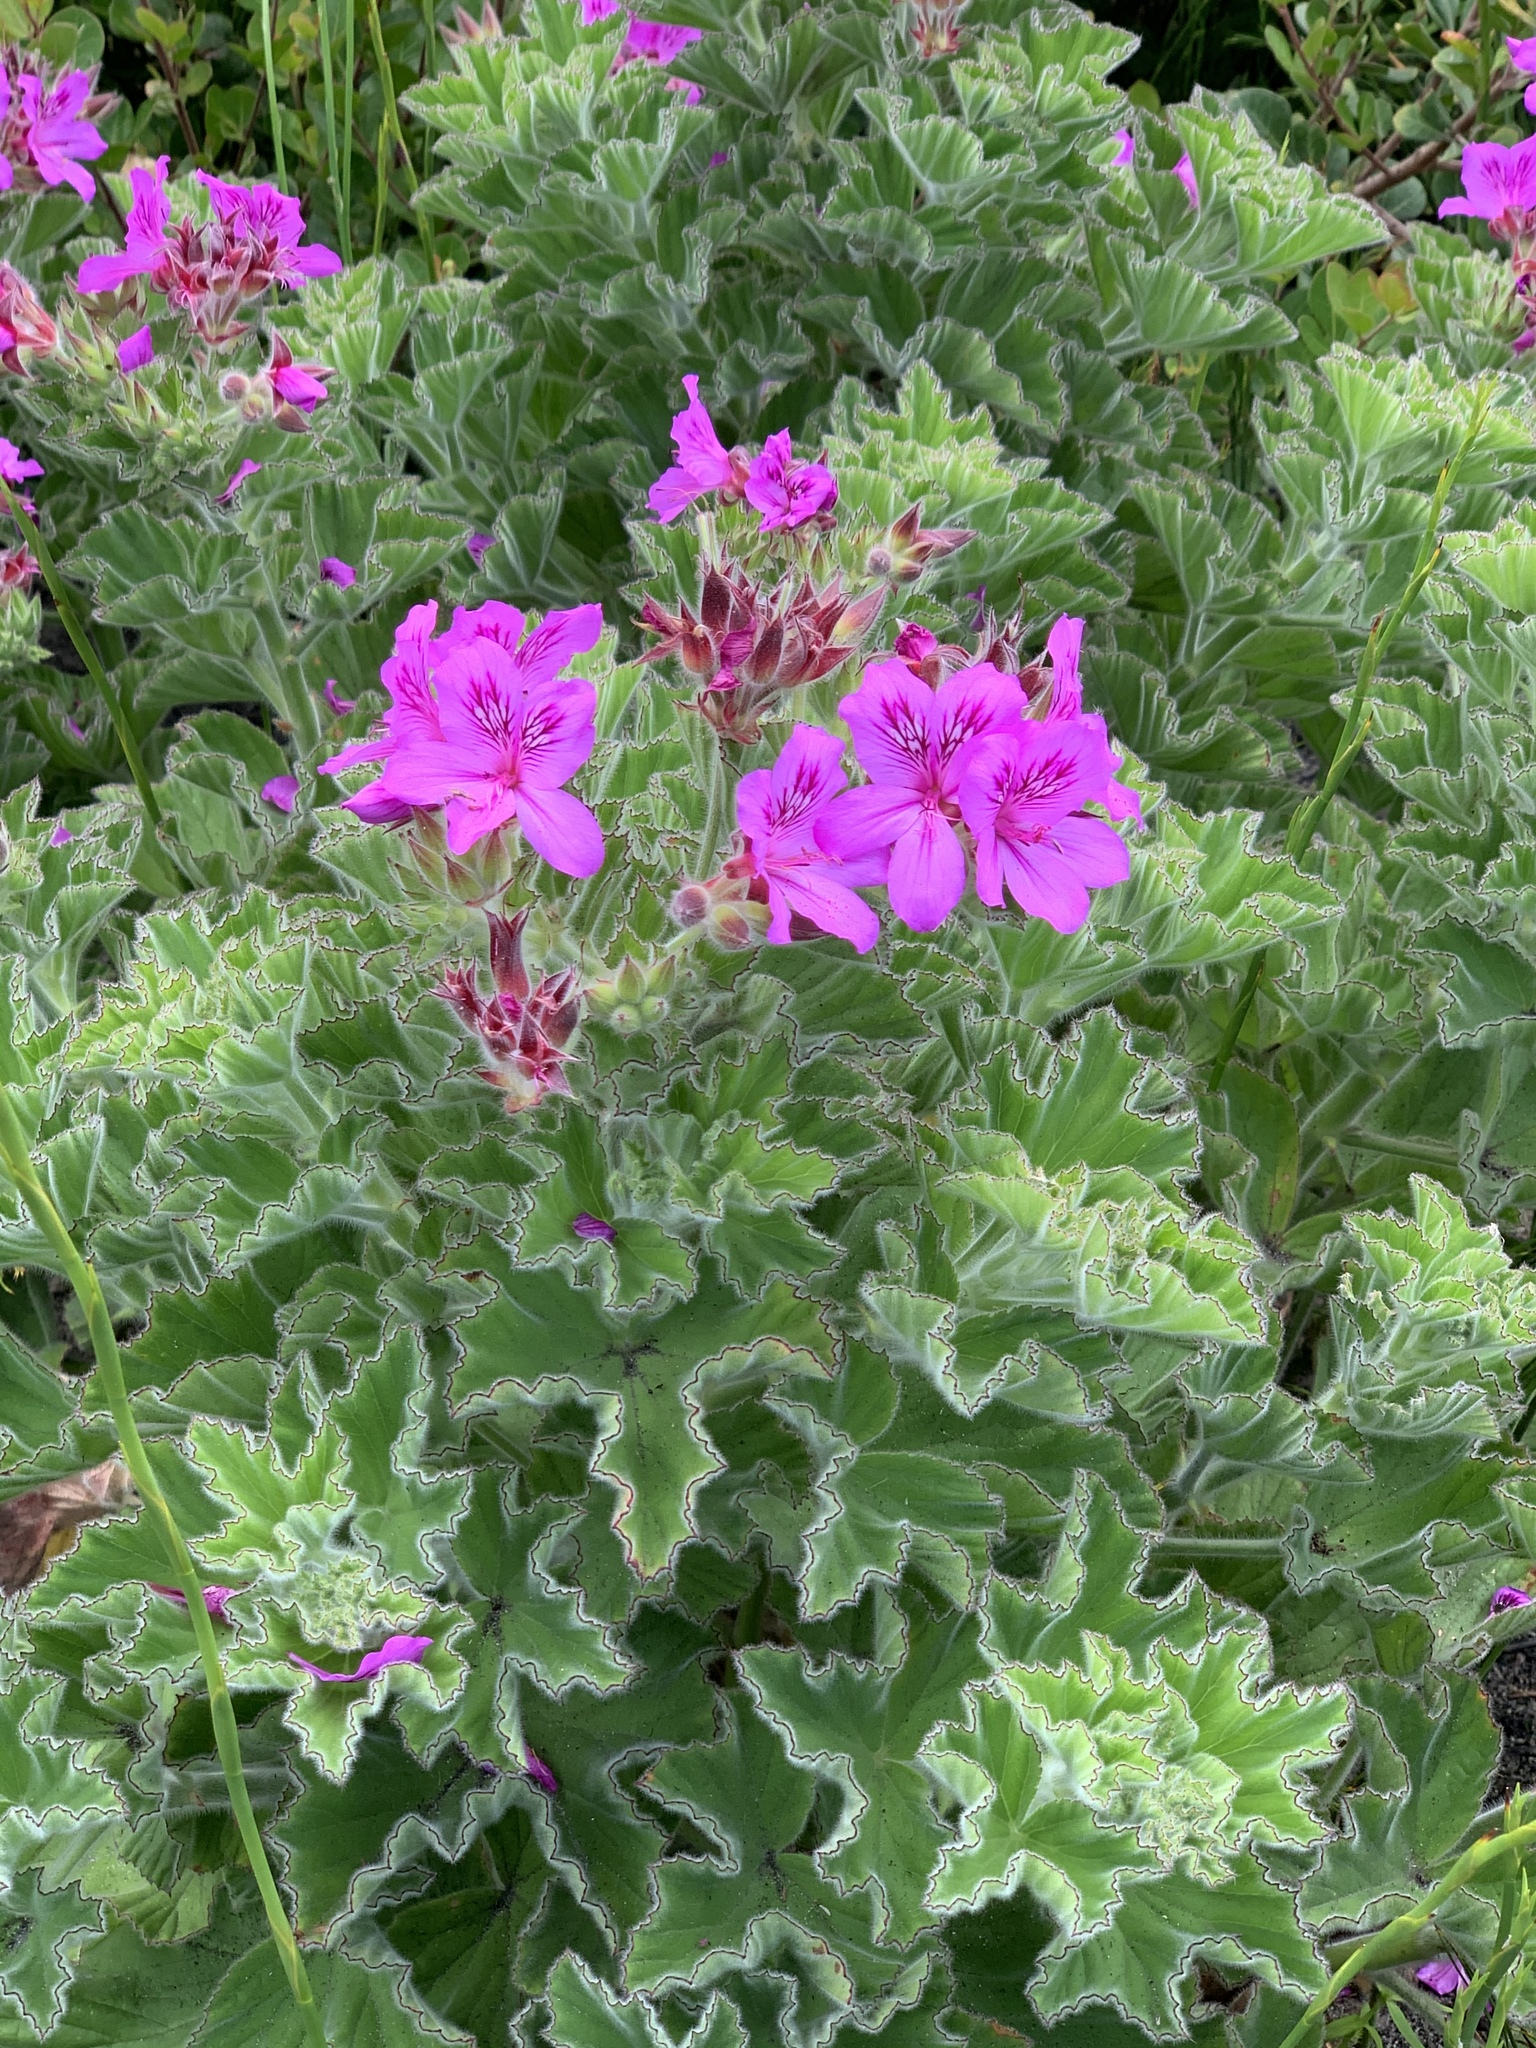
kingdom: Plantae
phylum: Tracheophyta
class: Magnoliopsida
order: Geraniales
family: Geraniaceae
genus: Pelargonium
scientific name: Pelargonium cucullatum
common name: Tree pelargonium
